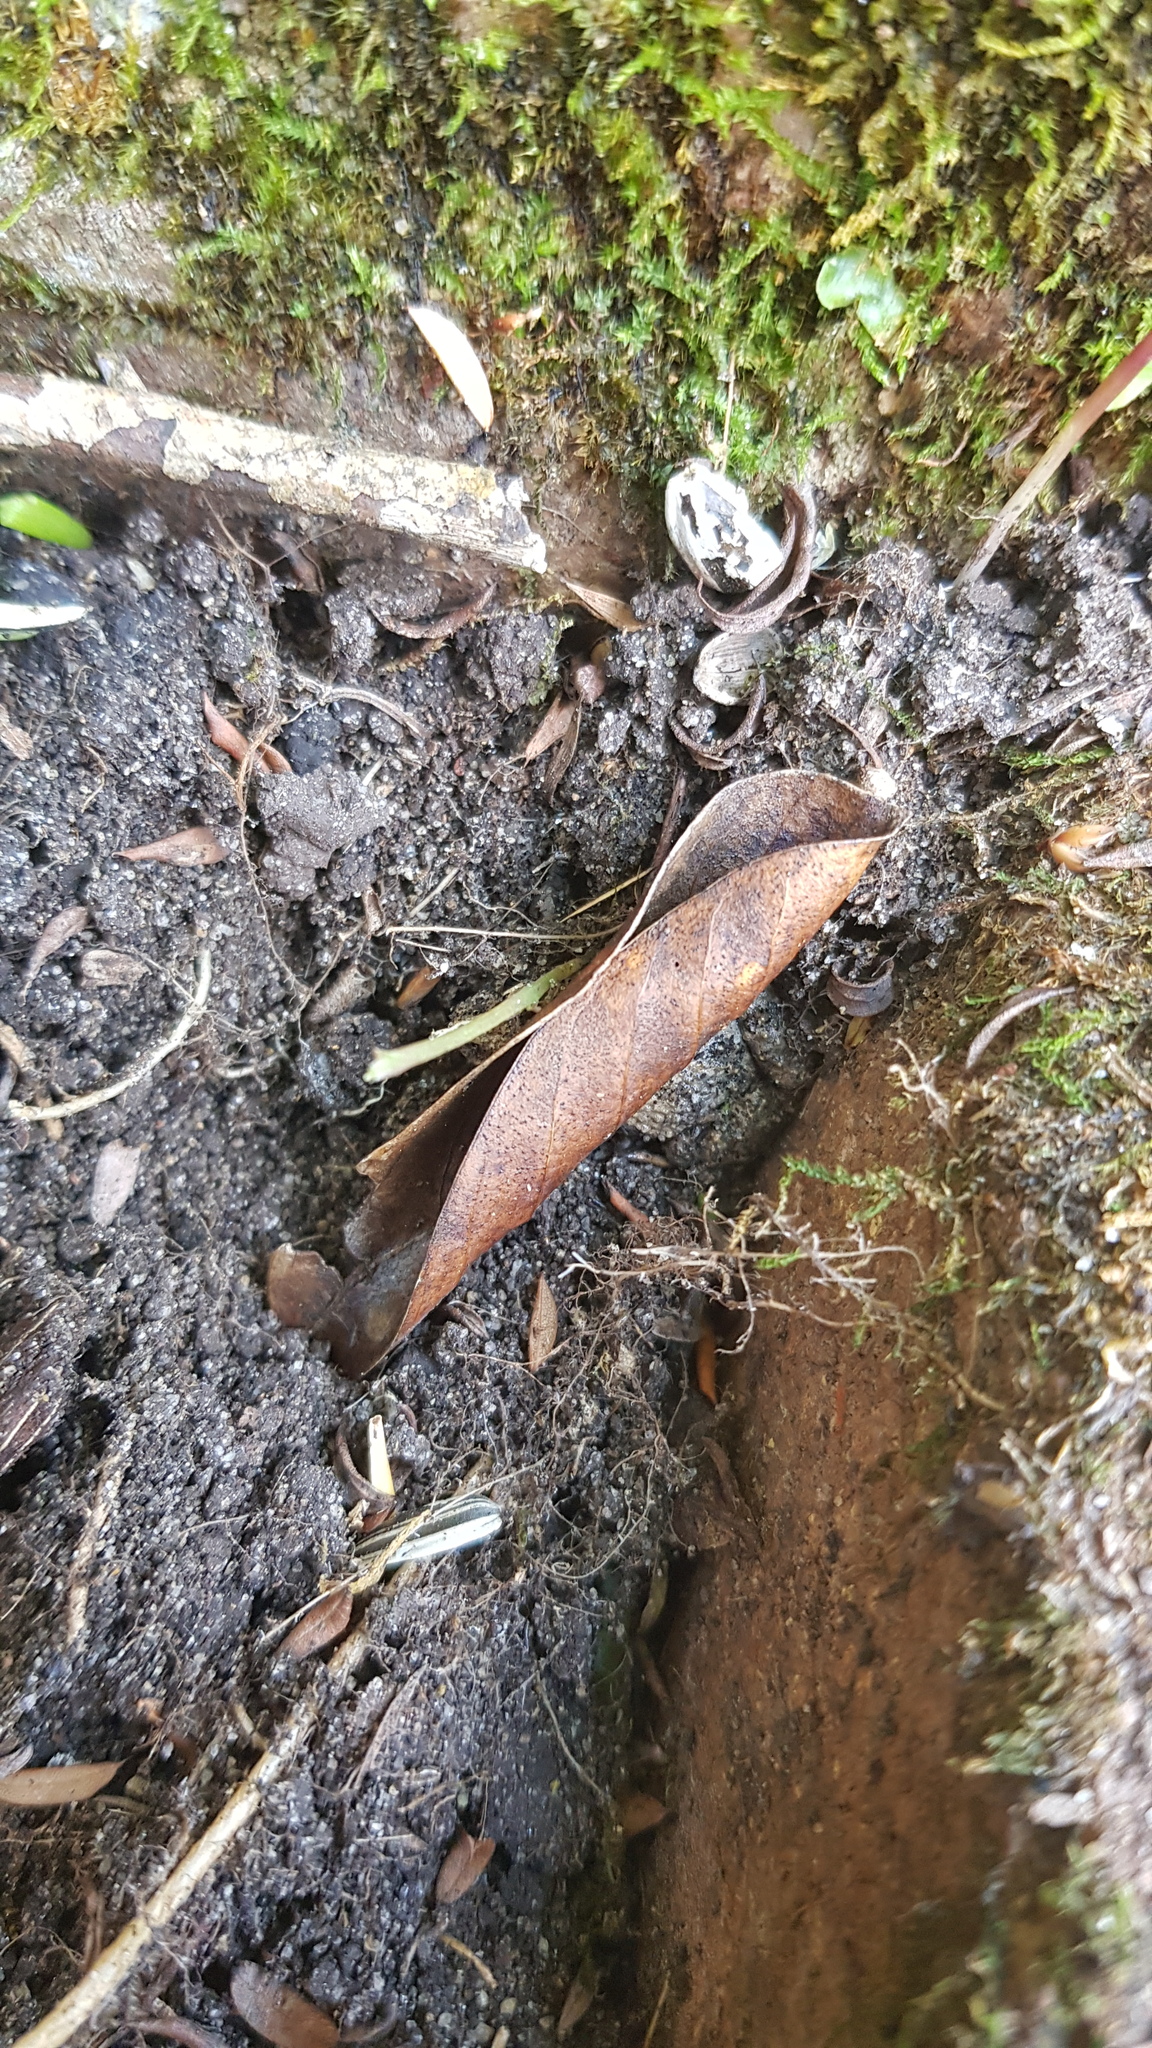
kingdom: Animalia
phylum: Chordata
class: Amphibia
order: Anura
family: Myobatrachidae
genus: Crinia
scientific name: Crinia signifera
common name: Brown froglet
